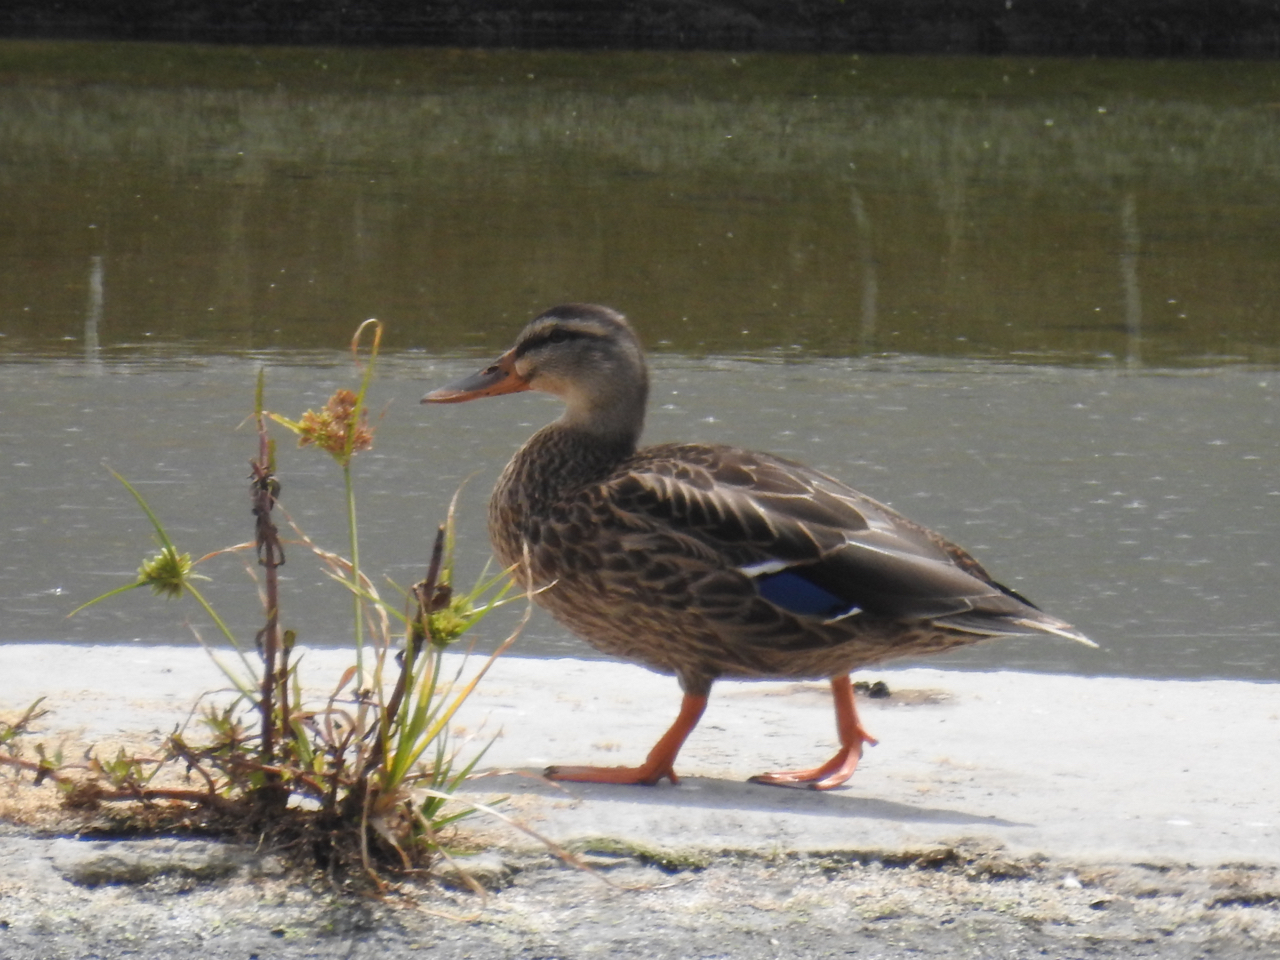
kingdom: Animalia
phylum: Chordata
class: Aves
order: Anseriformes
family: Anatidae
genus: Anas
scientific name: Anas platyrhynchos
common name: Mallard
